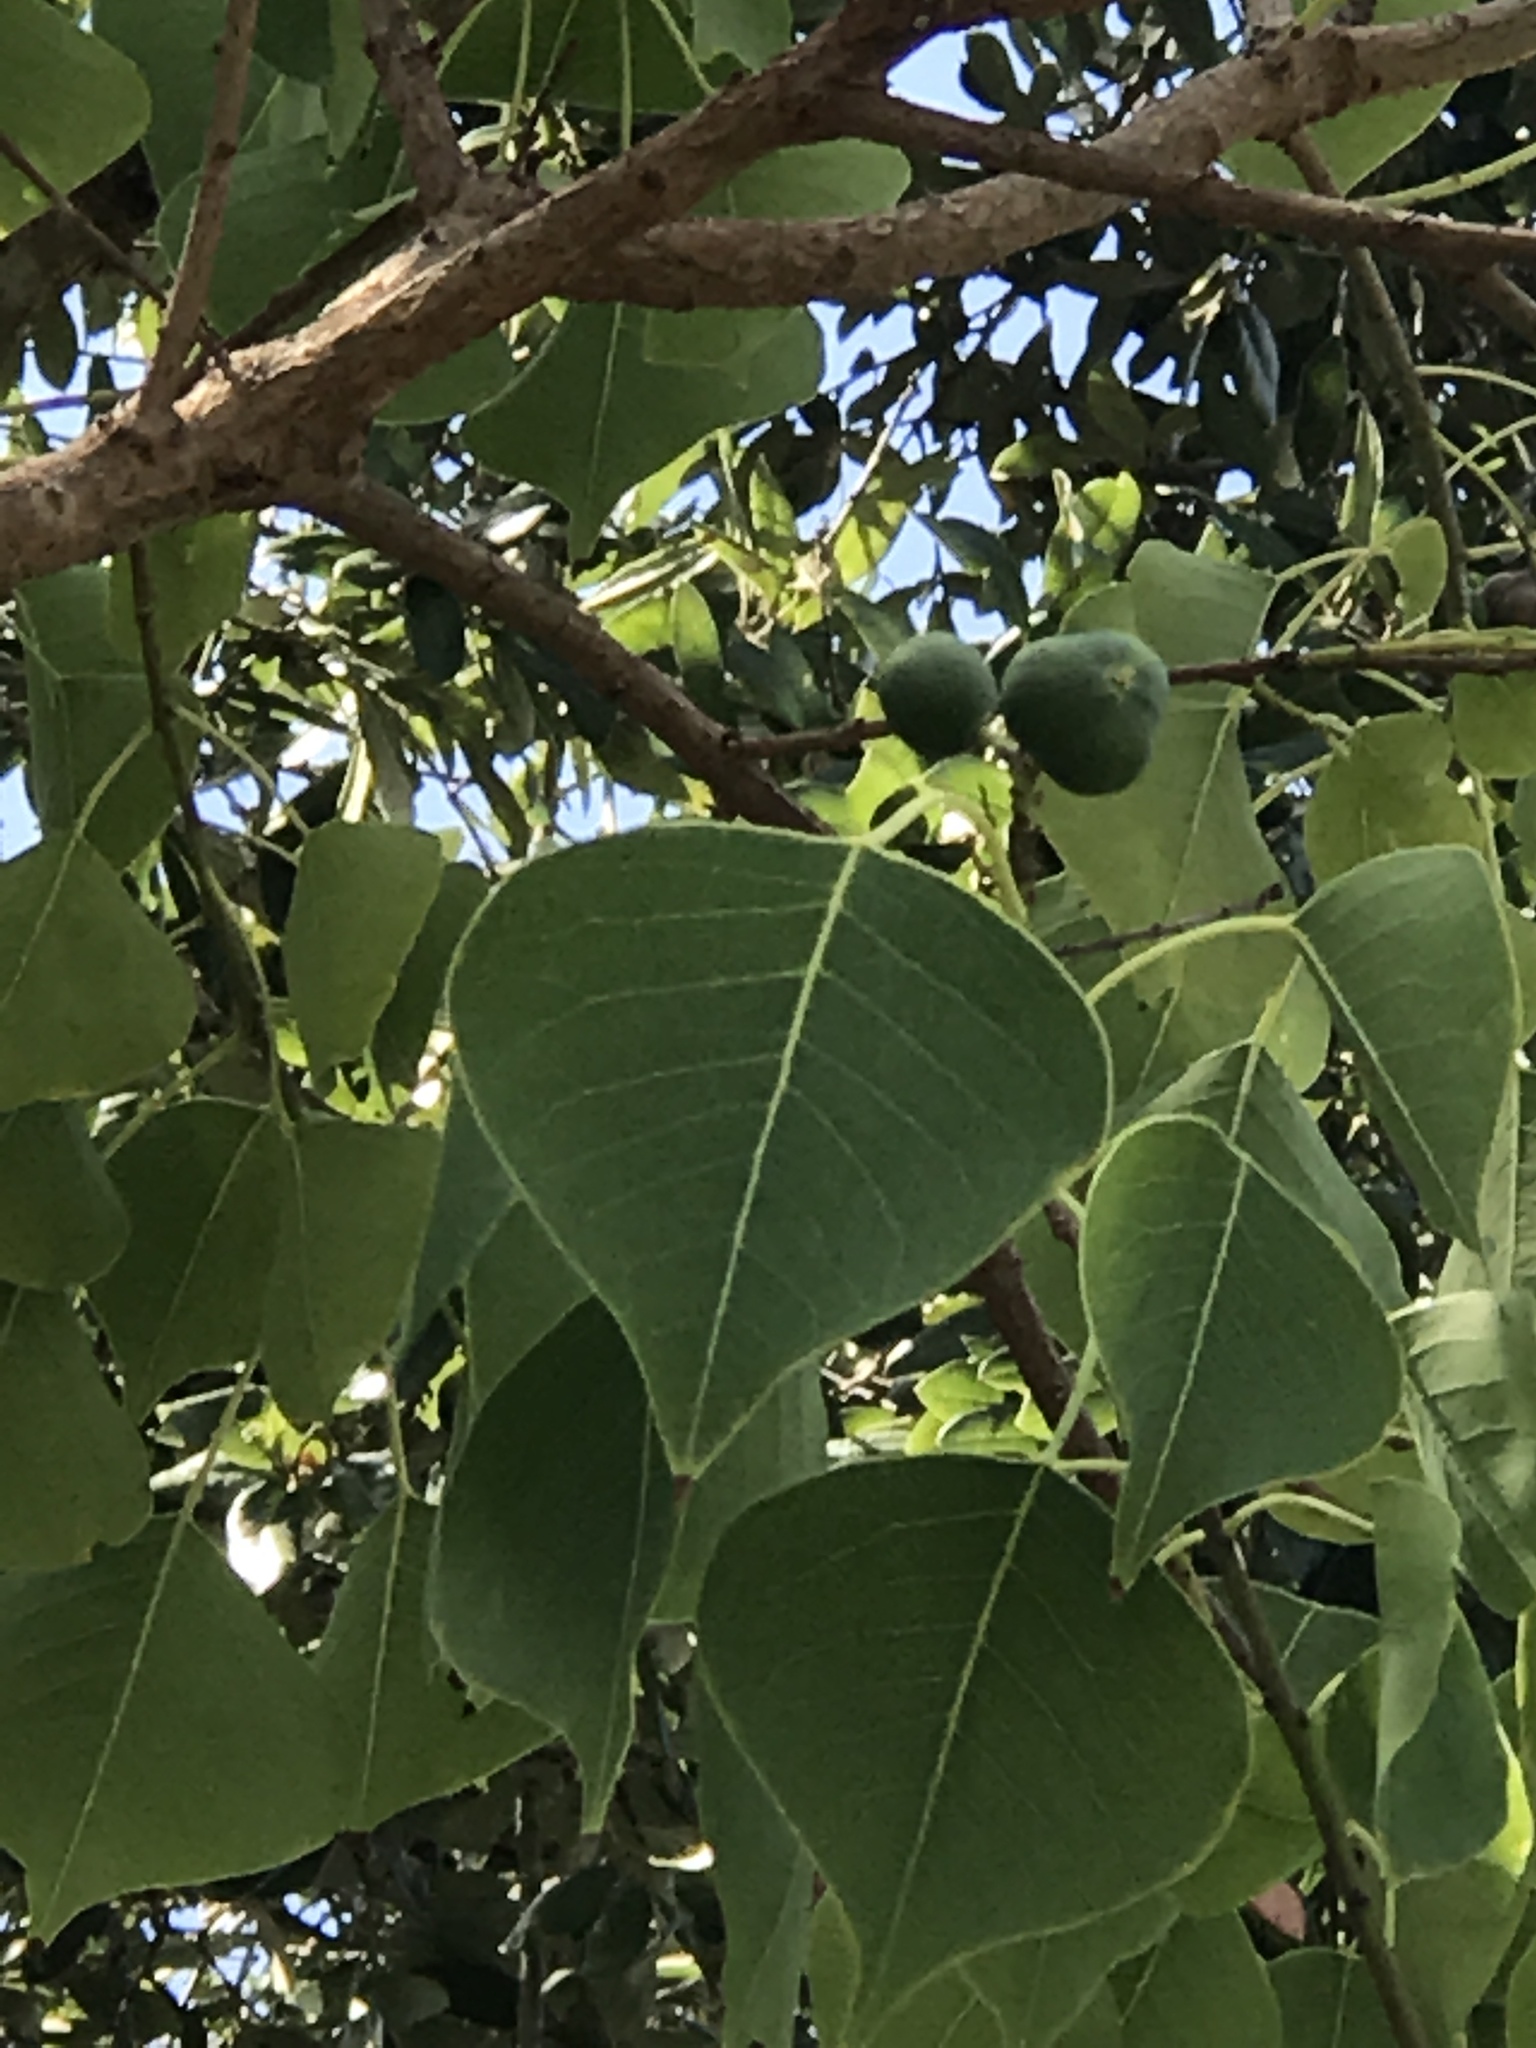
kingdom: Plantae
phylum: Tracheophyta
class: Magnoliopsida
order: Malpighiales
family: Euphorbiaceae
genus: Triadica
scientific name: Triadica sebifera
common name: Chinese tallow
